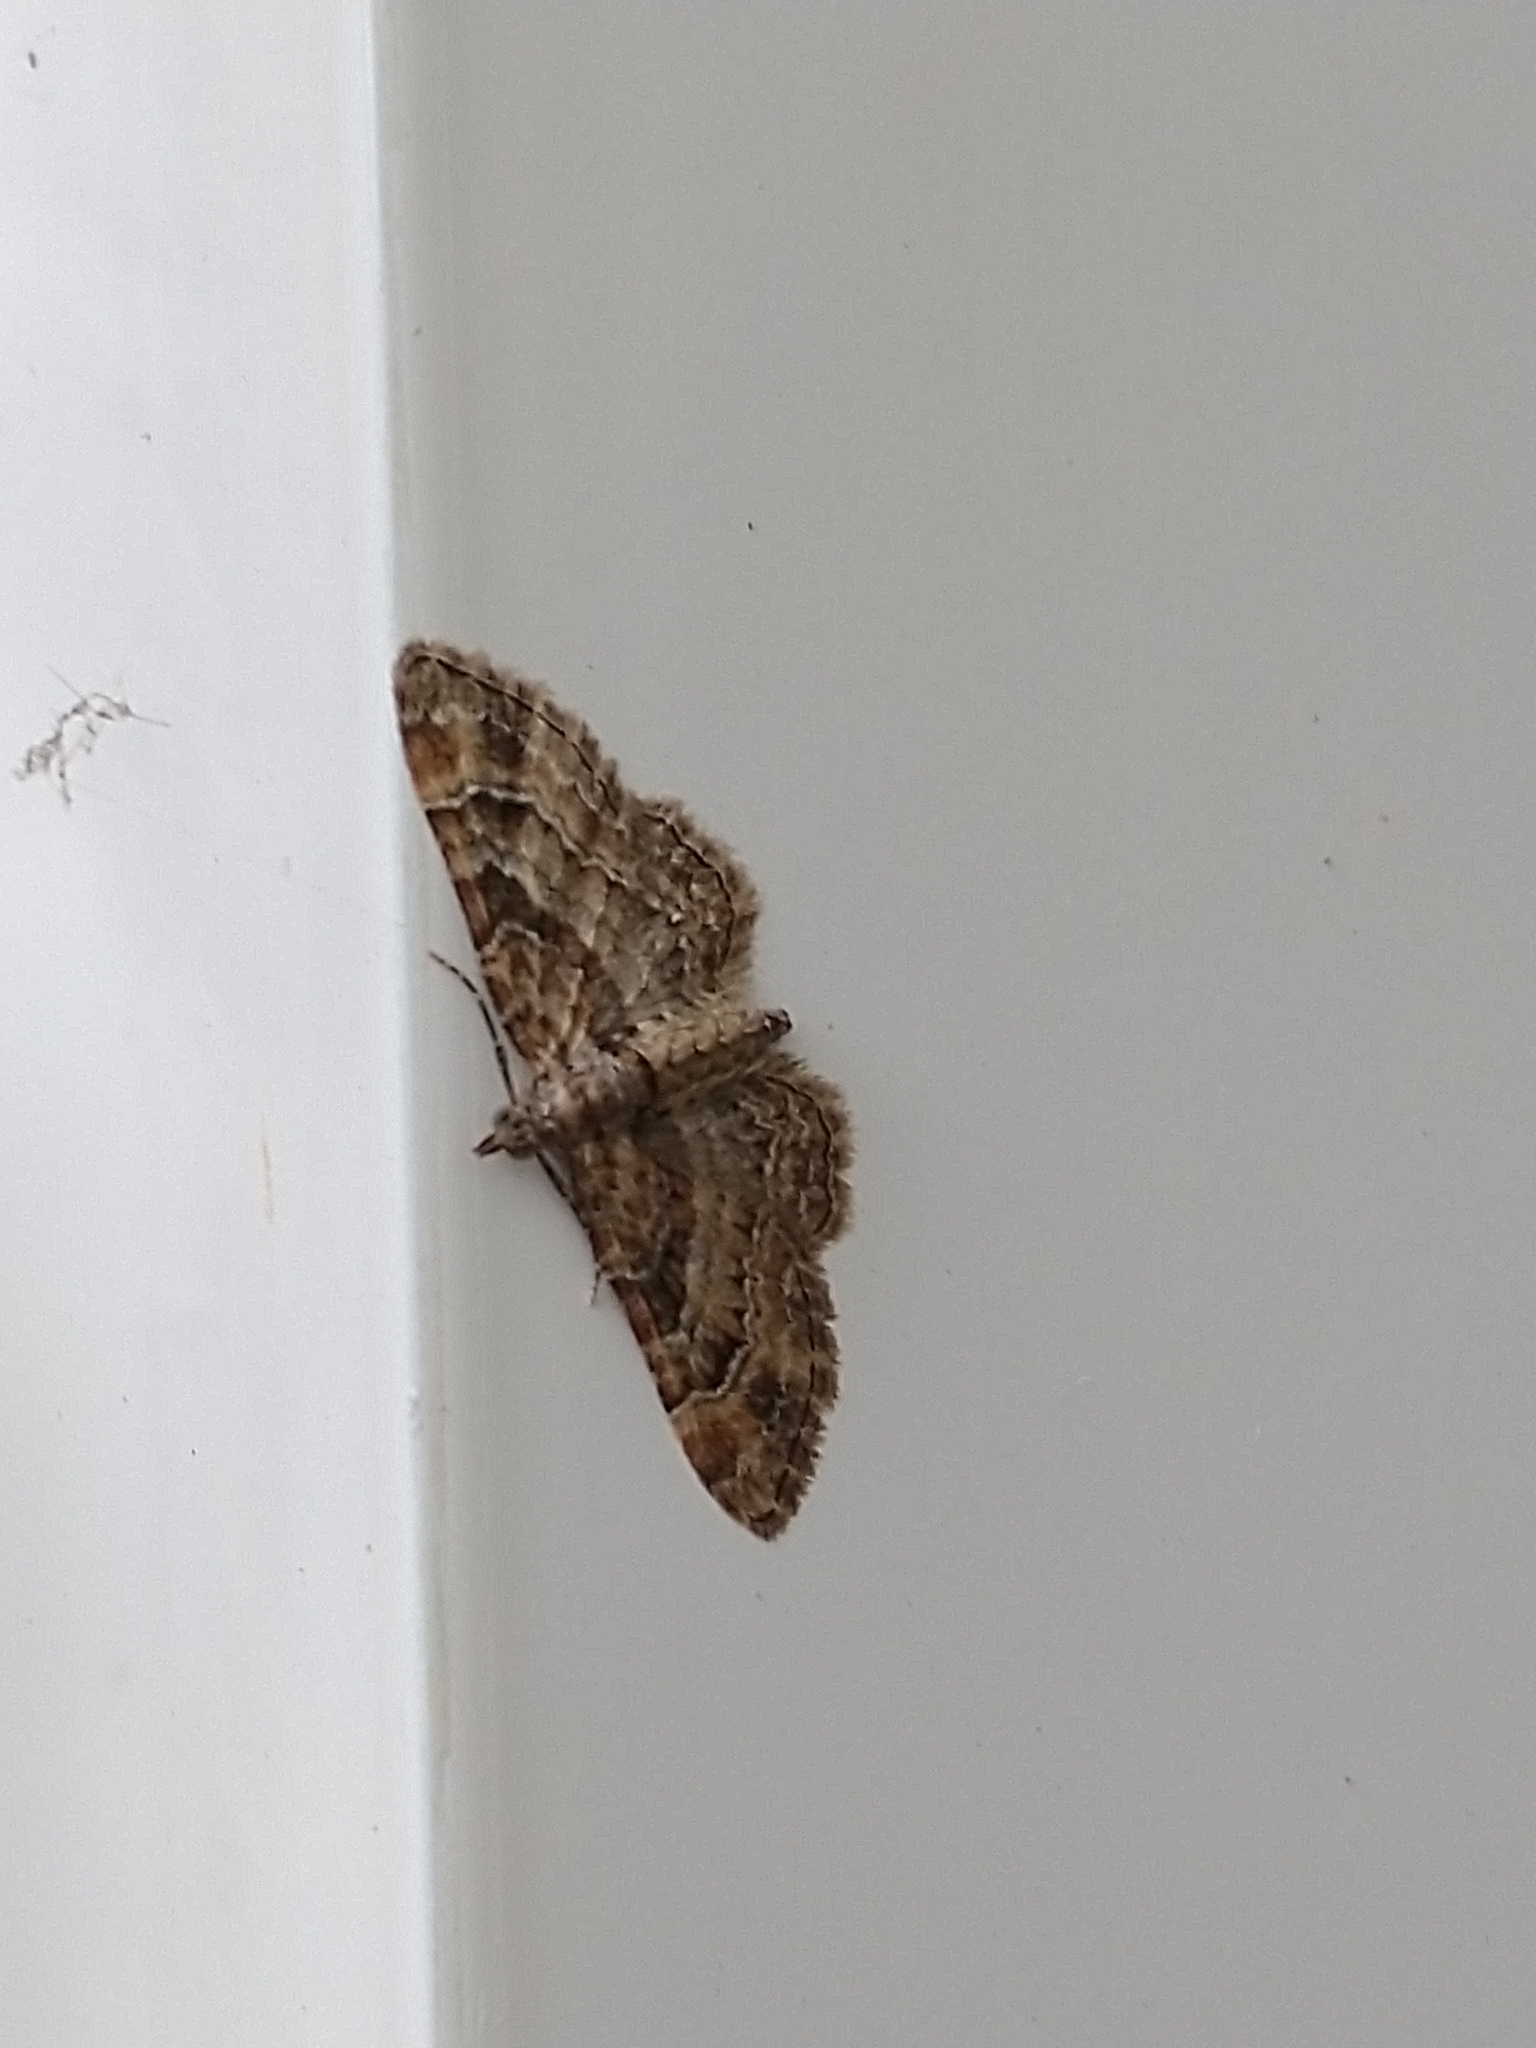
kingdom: Animalia
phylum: Arthropoda
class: Insecta
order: Lepidoptera
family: Geometridae
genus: Gymnoscelis
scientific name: Gymnoscelis rufifasciata
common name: Double-striped pug
